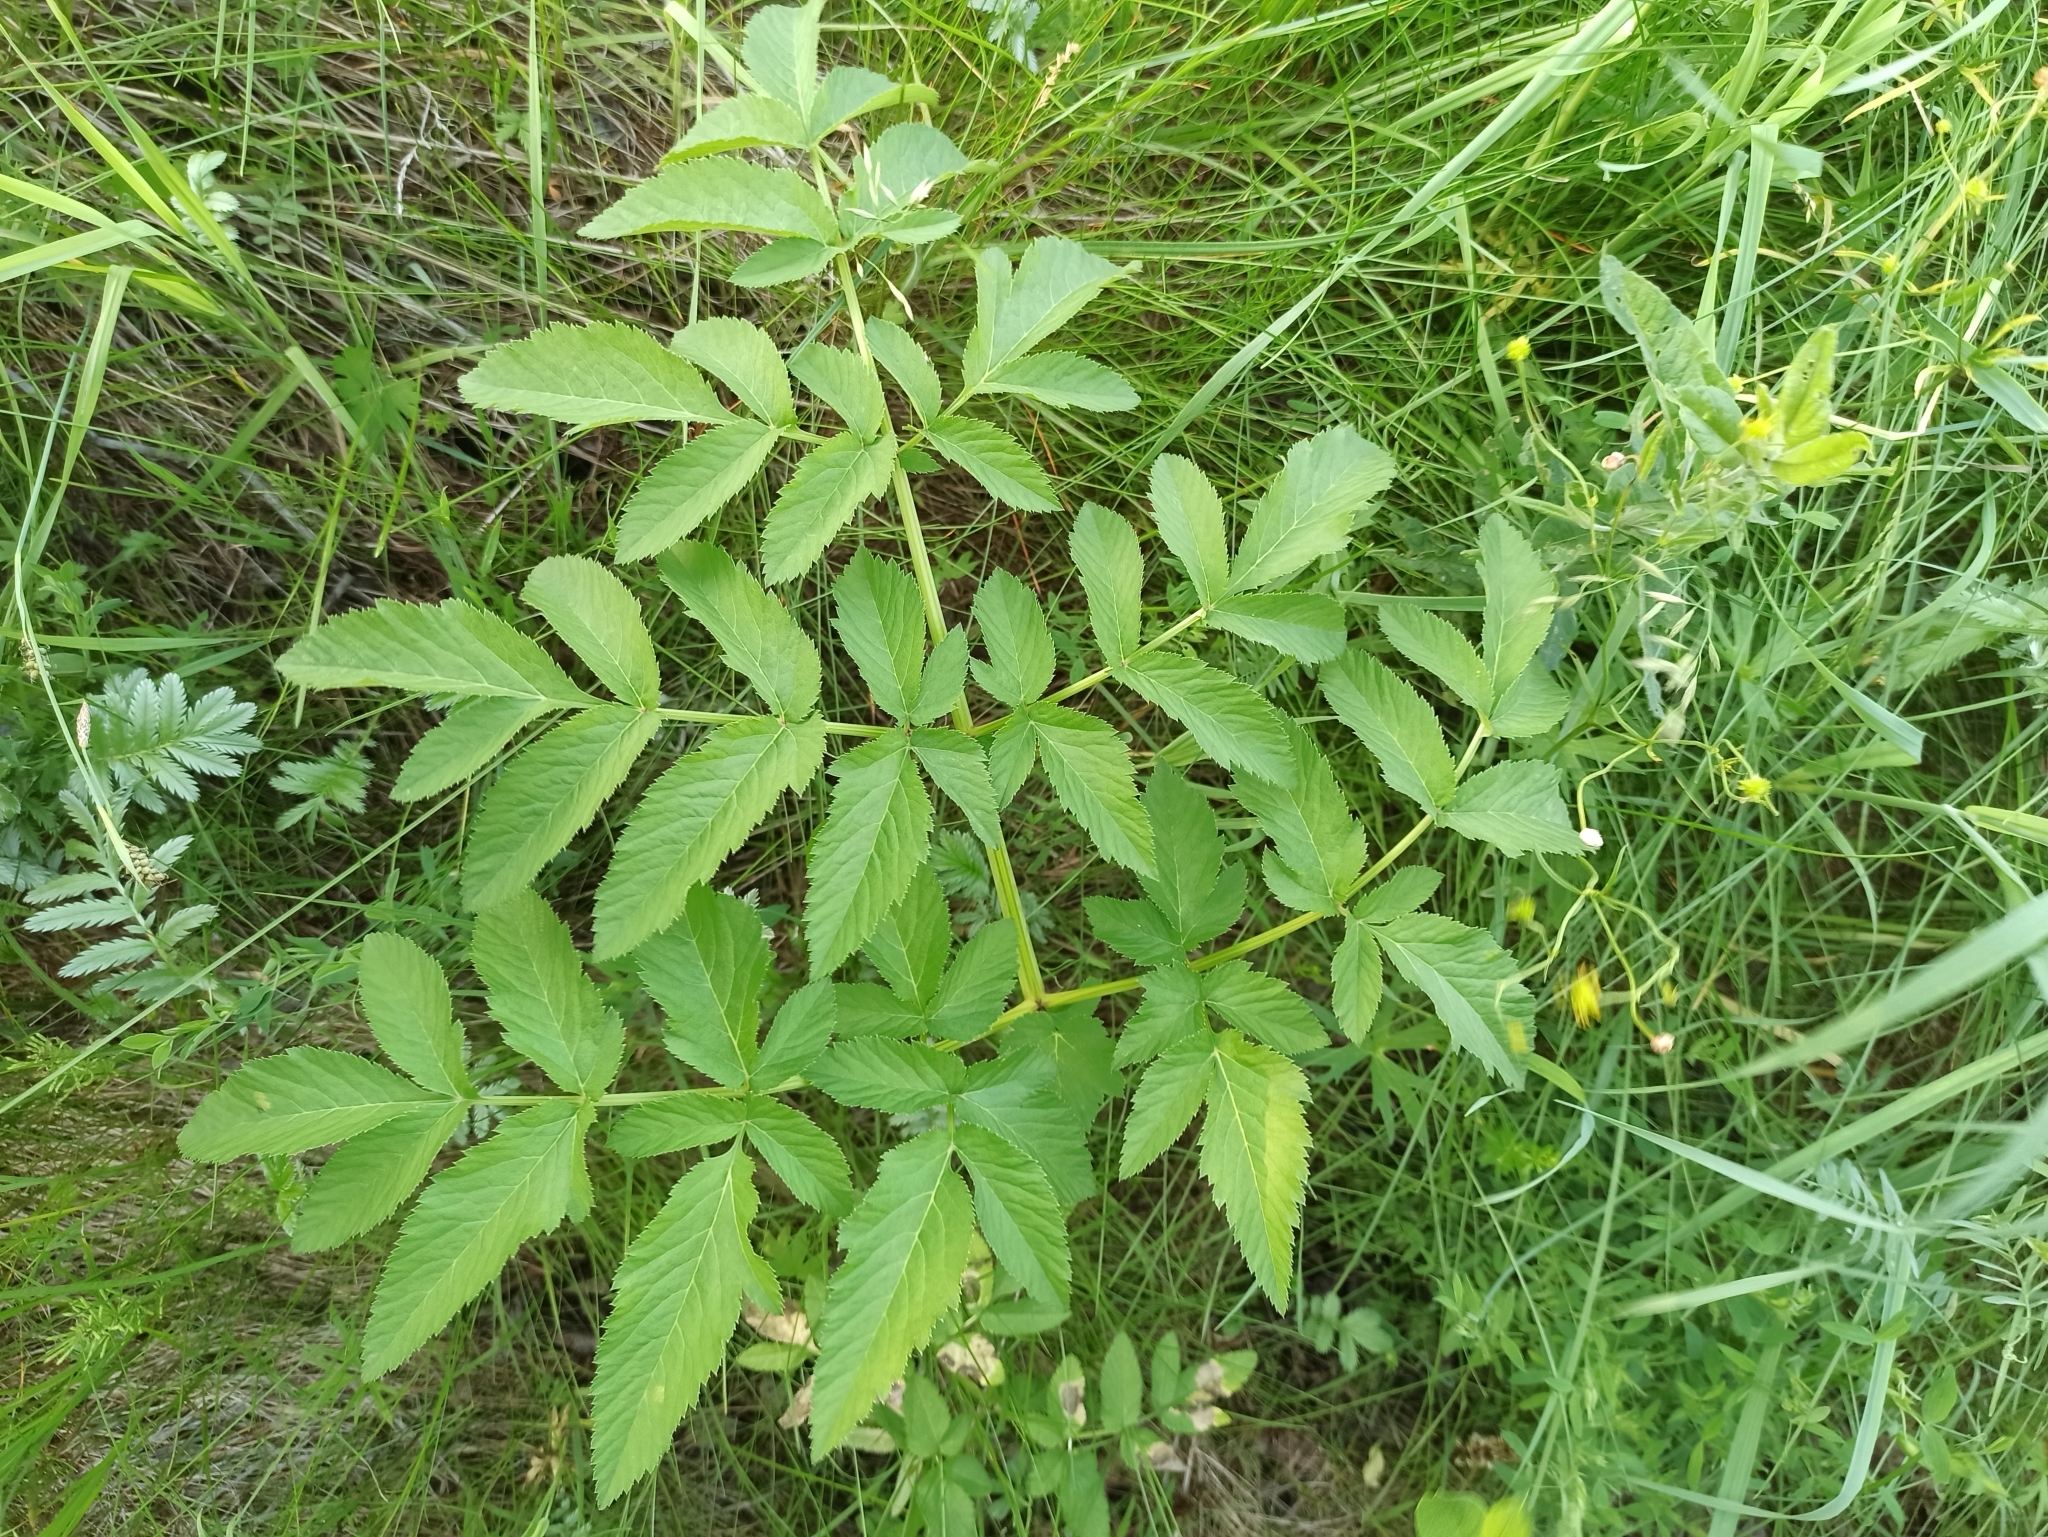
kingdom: Plantae
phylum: Tracheophyta
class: Magnoliopsida
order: Apiales
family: Apiaceae
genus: Angelica
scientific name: Angelica sylvestris
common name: Wild angelica
